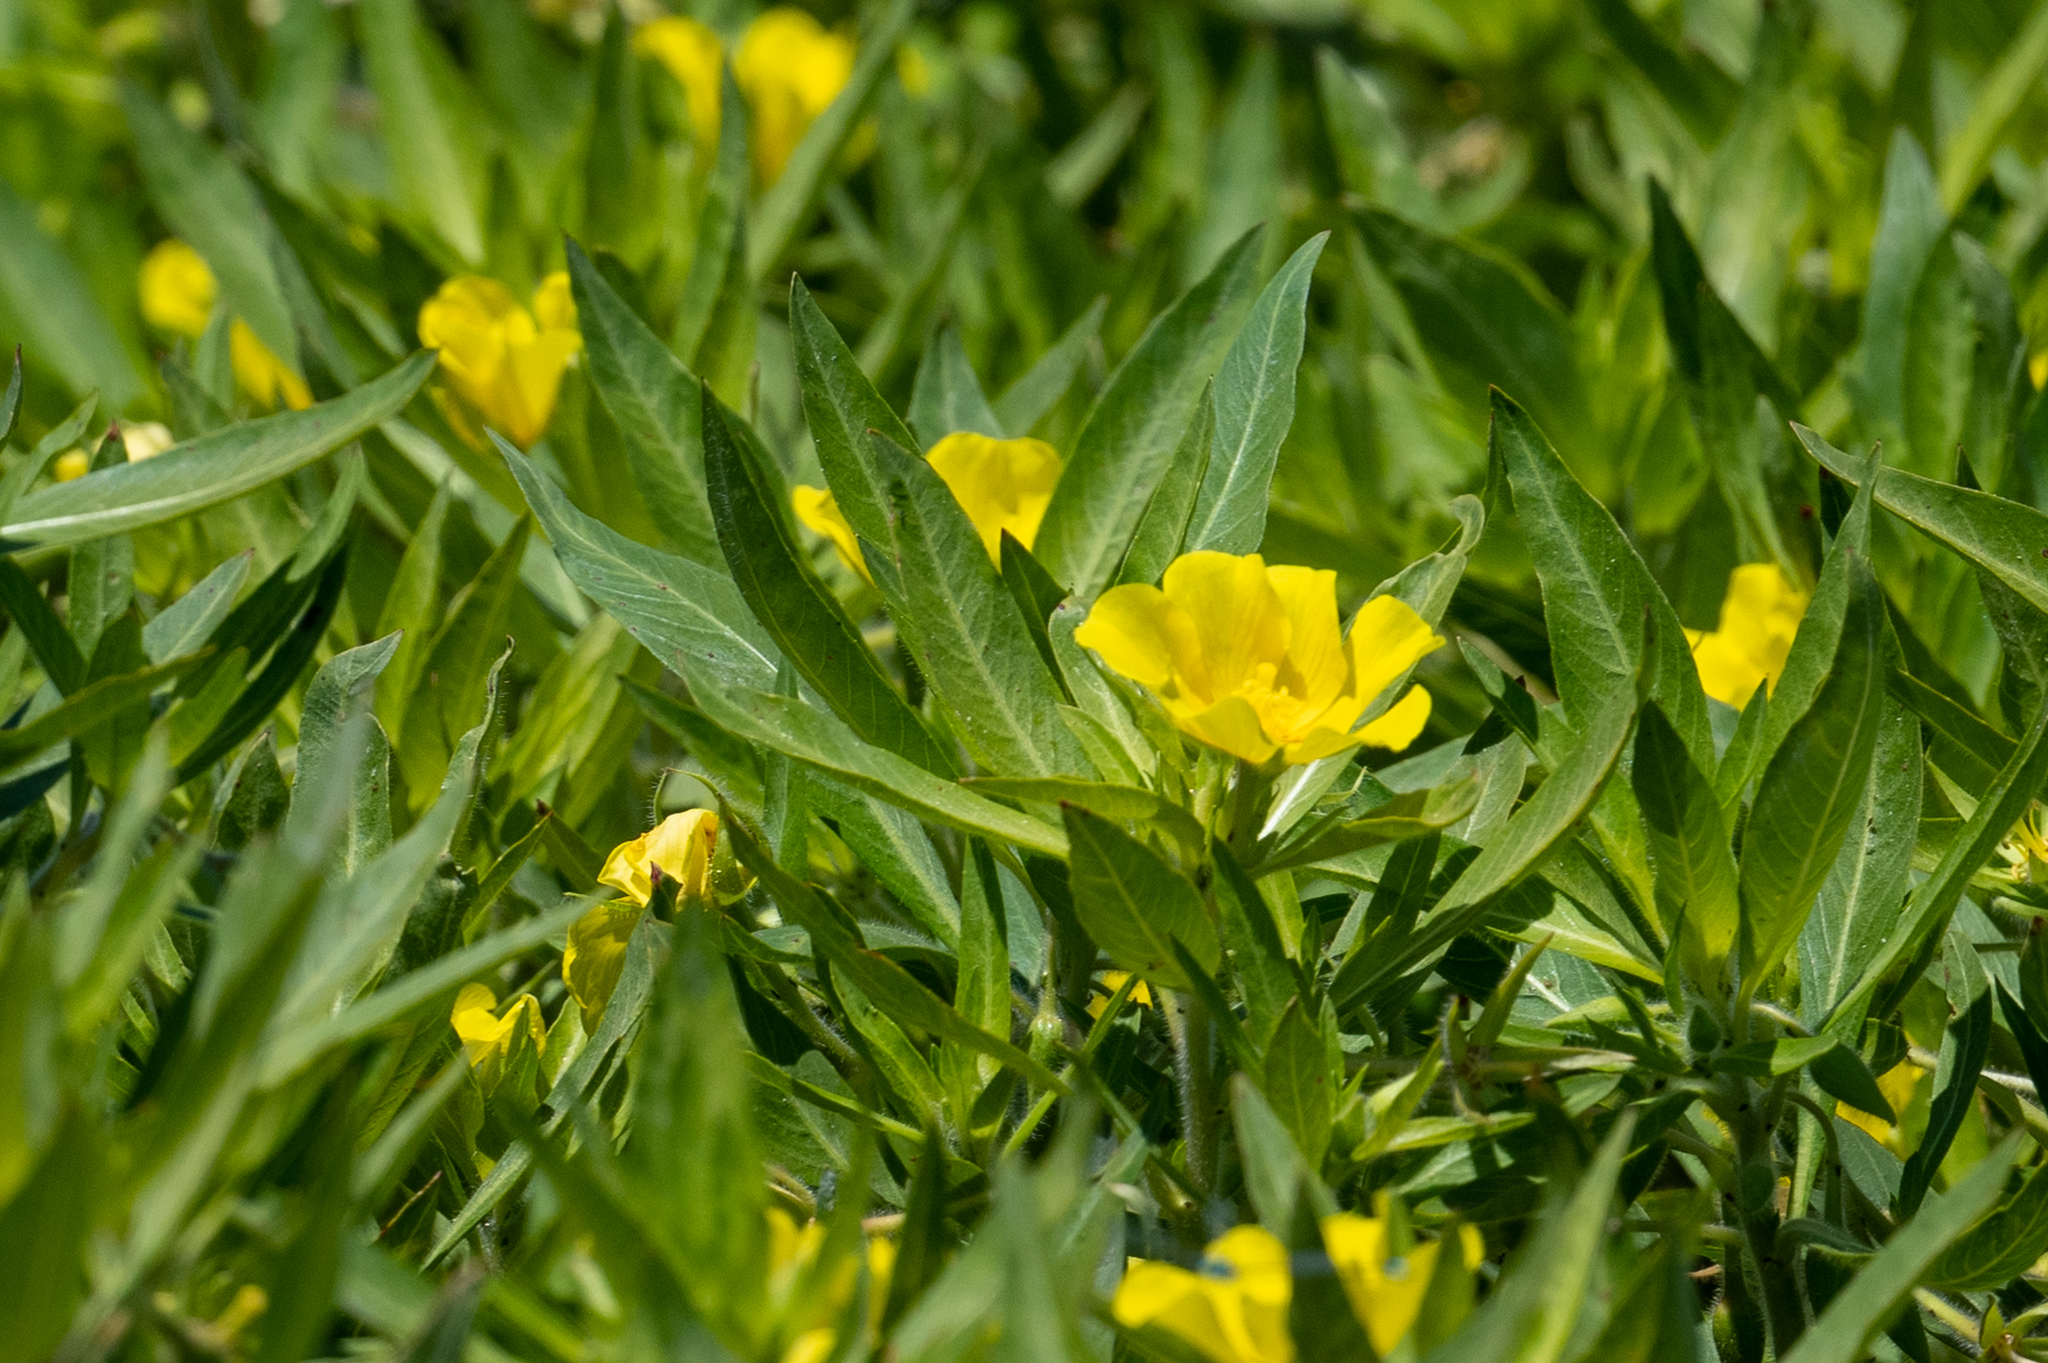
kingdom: Plantae
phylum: Tracheophyta
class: Magnoliopsida
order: Myrtales
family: Onagraceae
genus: Ludwigia
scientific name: Ludwigia hexapetala
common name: Water-primrose
